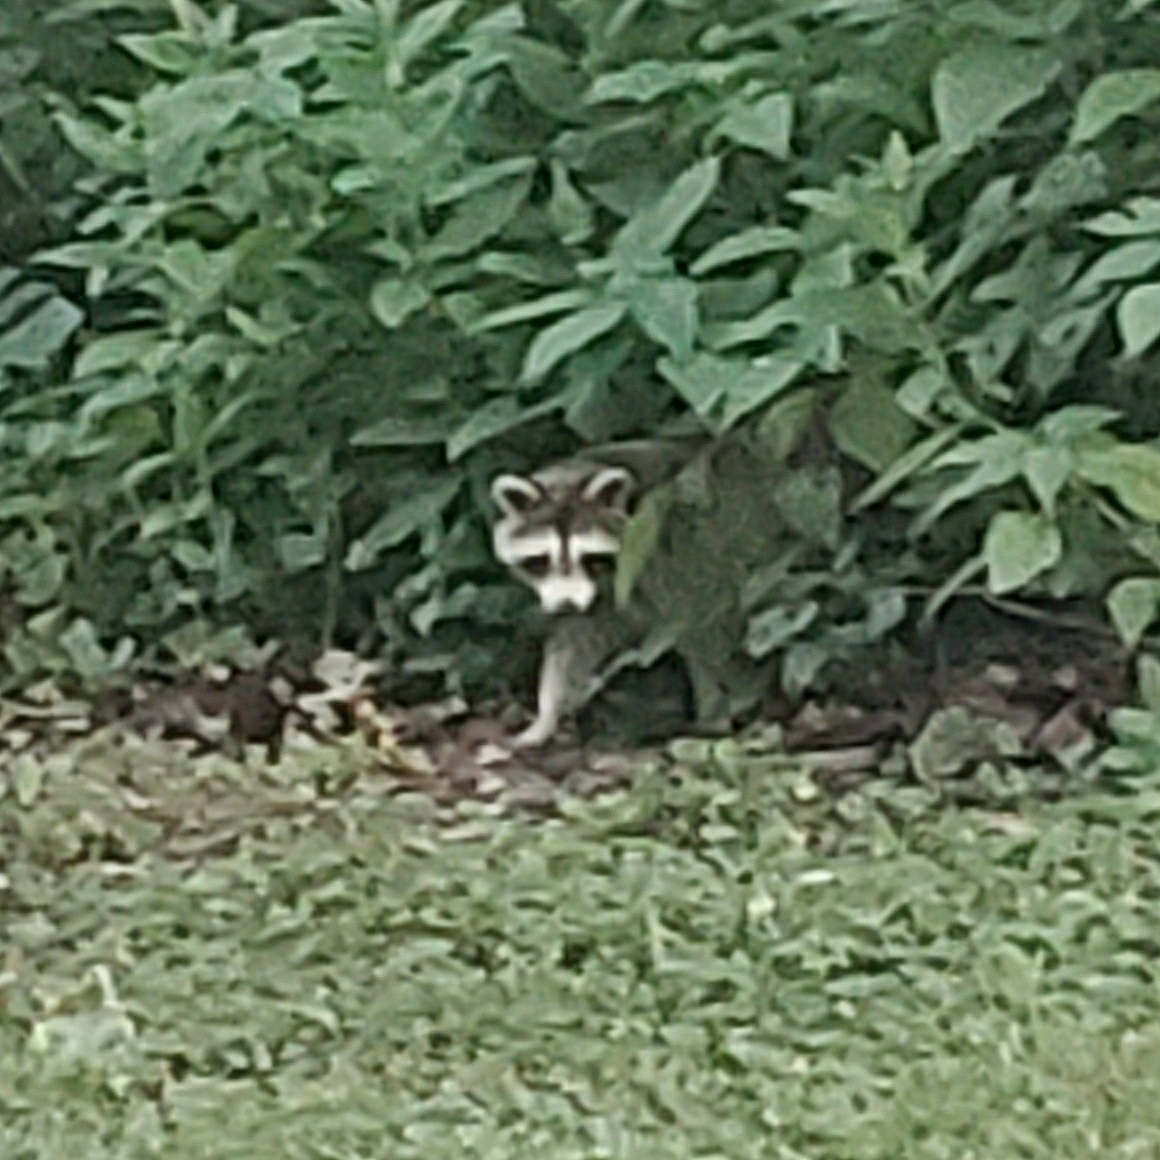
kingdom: Animalia
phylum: Chordata
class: Mammalia
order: Carnivora
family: Procyonidae
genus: Procyon
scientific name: Procyon lotor
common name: Raccoon
